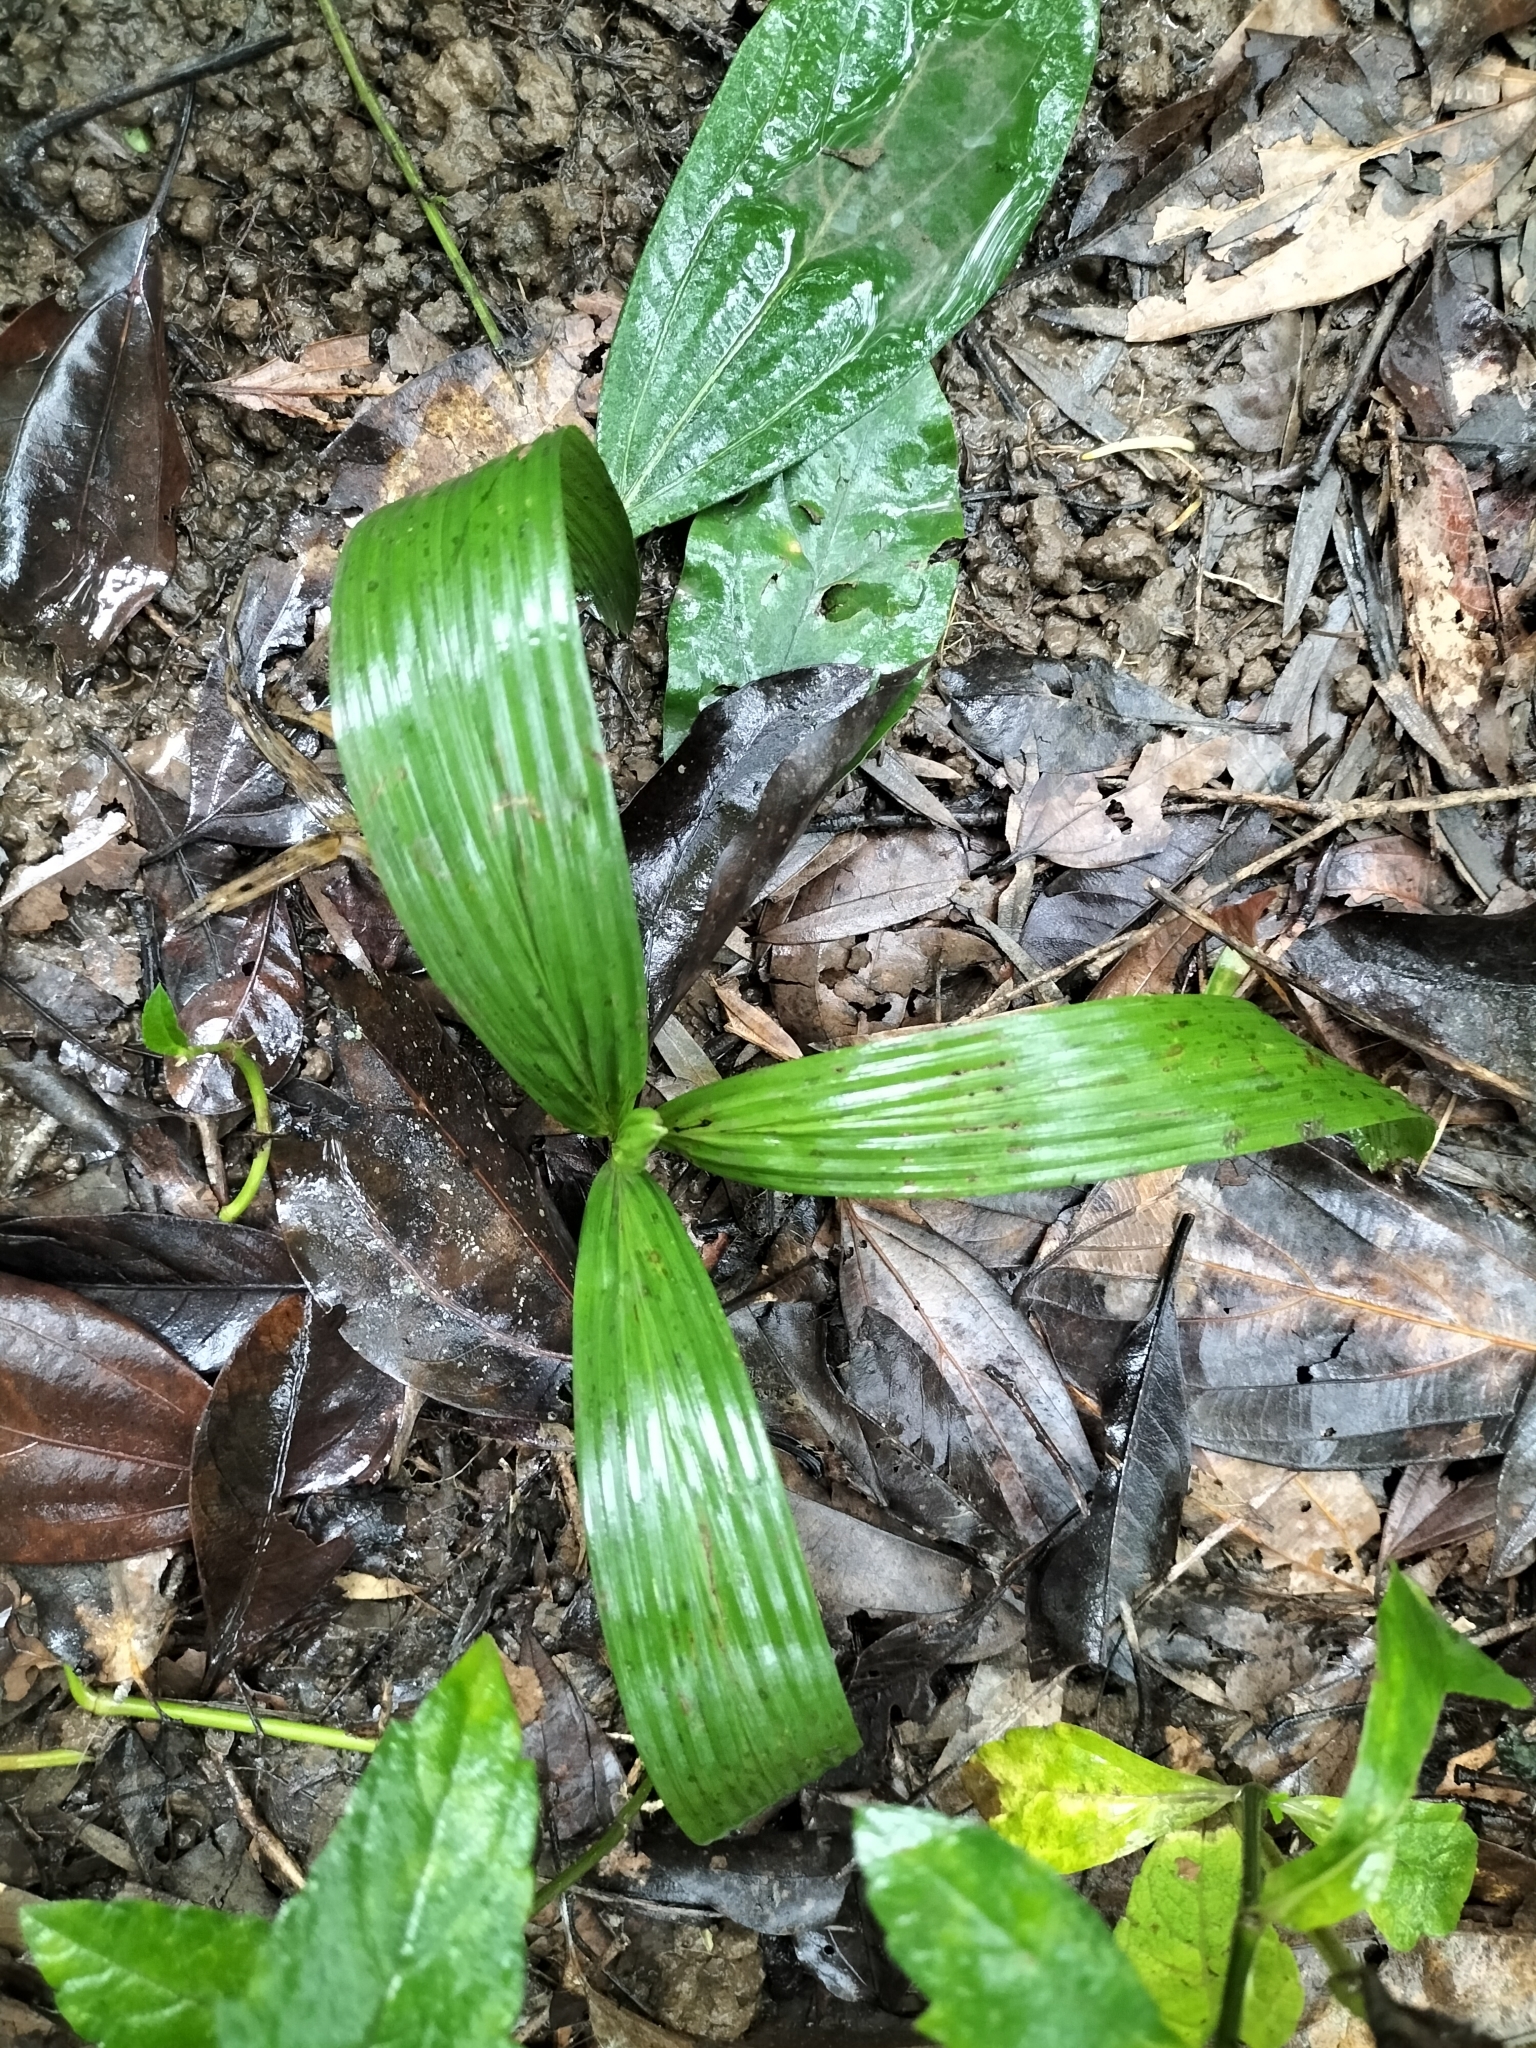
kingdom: Plantae
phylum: Tracheophyta
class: Liliopsida
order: Asparagales
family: Hypoxidaceae
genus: Curculigo
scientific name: Curculigo capitulata
